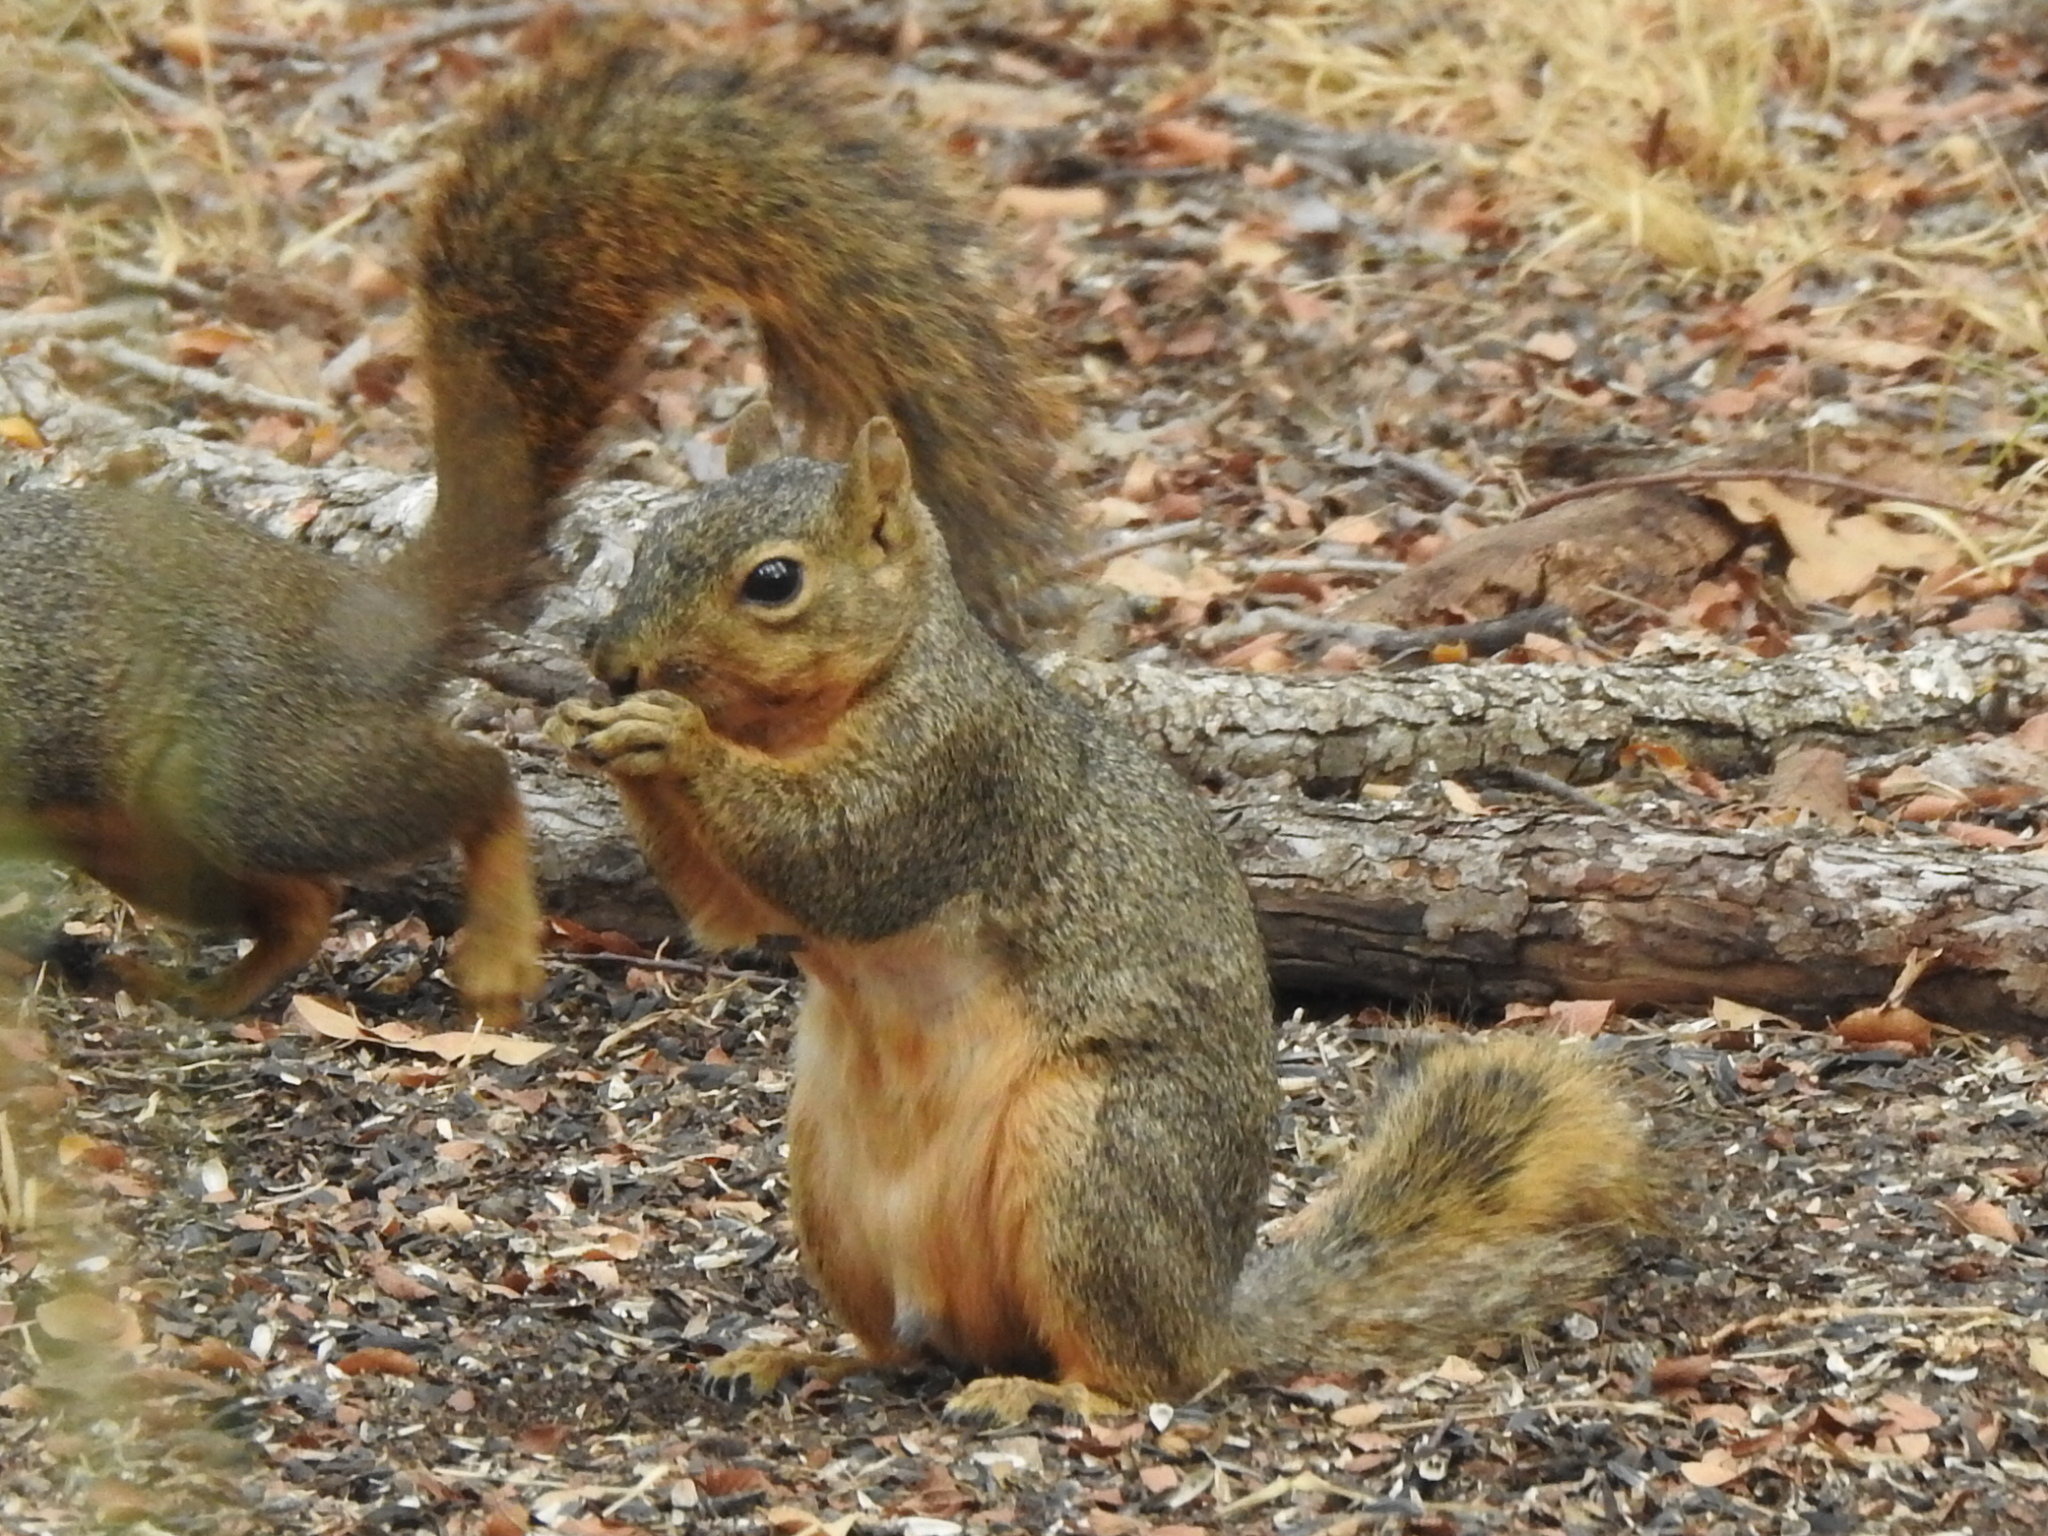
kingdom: Animalia
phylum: Chordata
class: Mammalia
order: Rodentia
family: Sciuridae
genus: Sciurus
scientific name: Sciurus niger
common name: Fox squirrel
